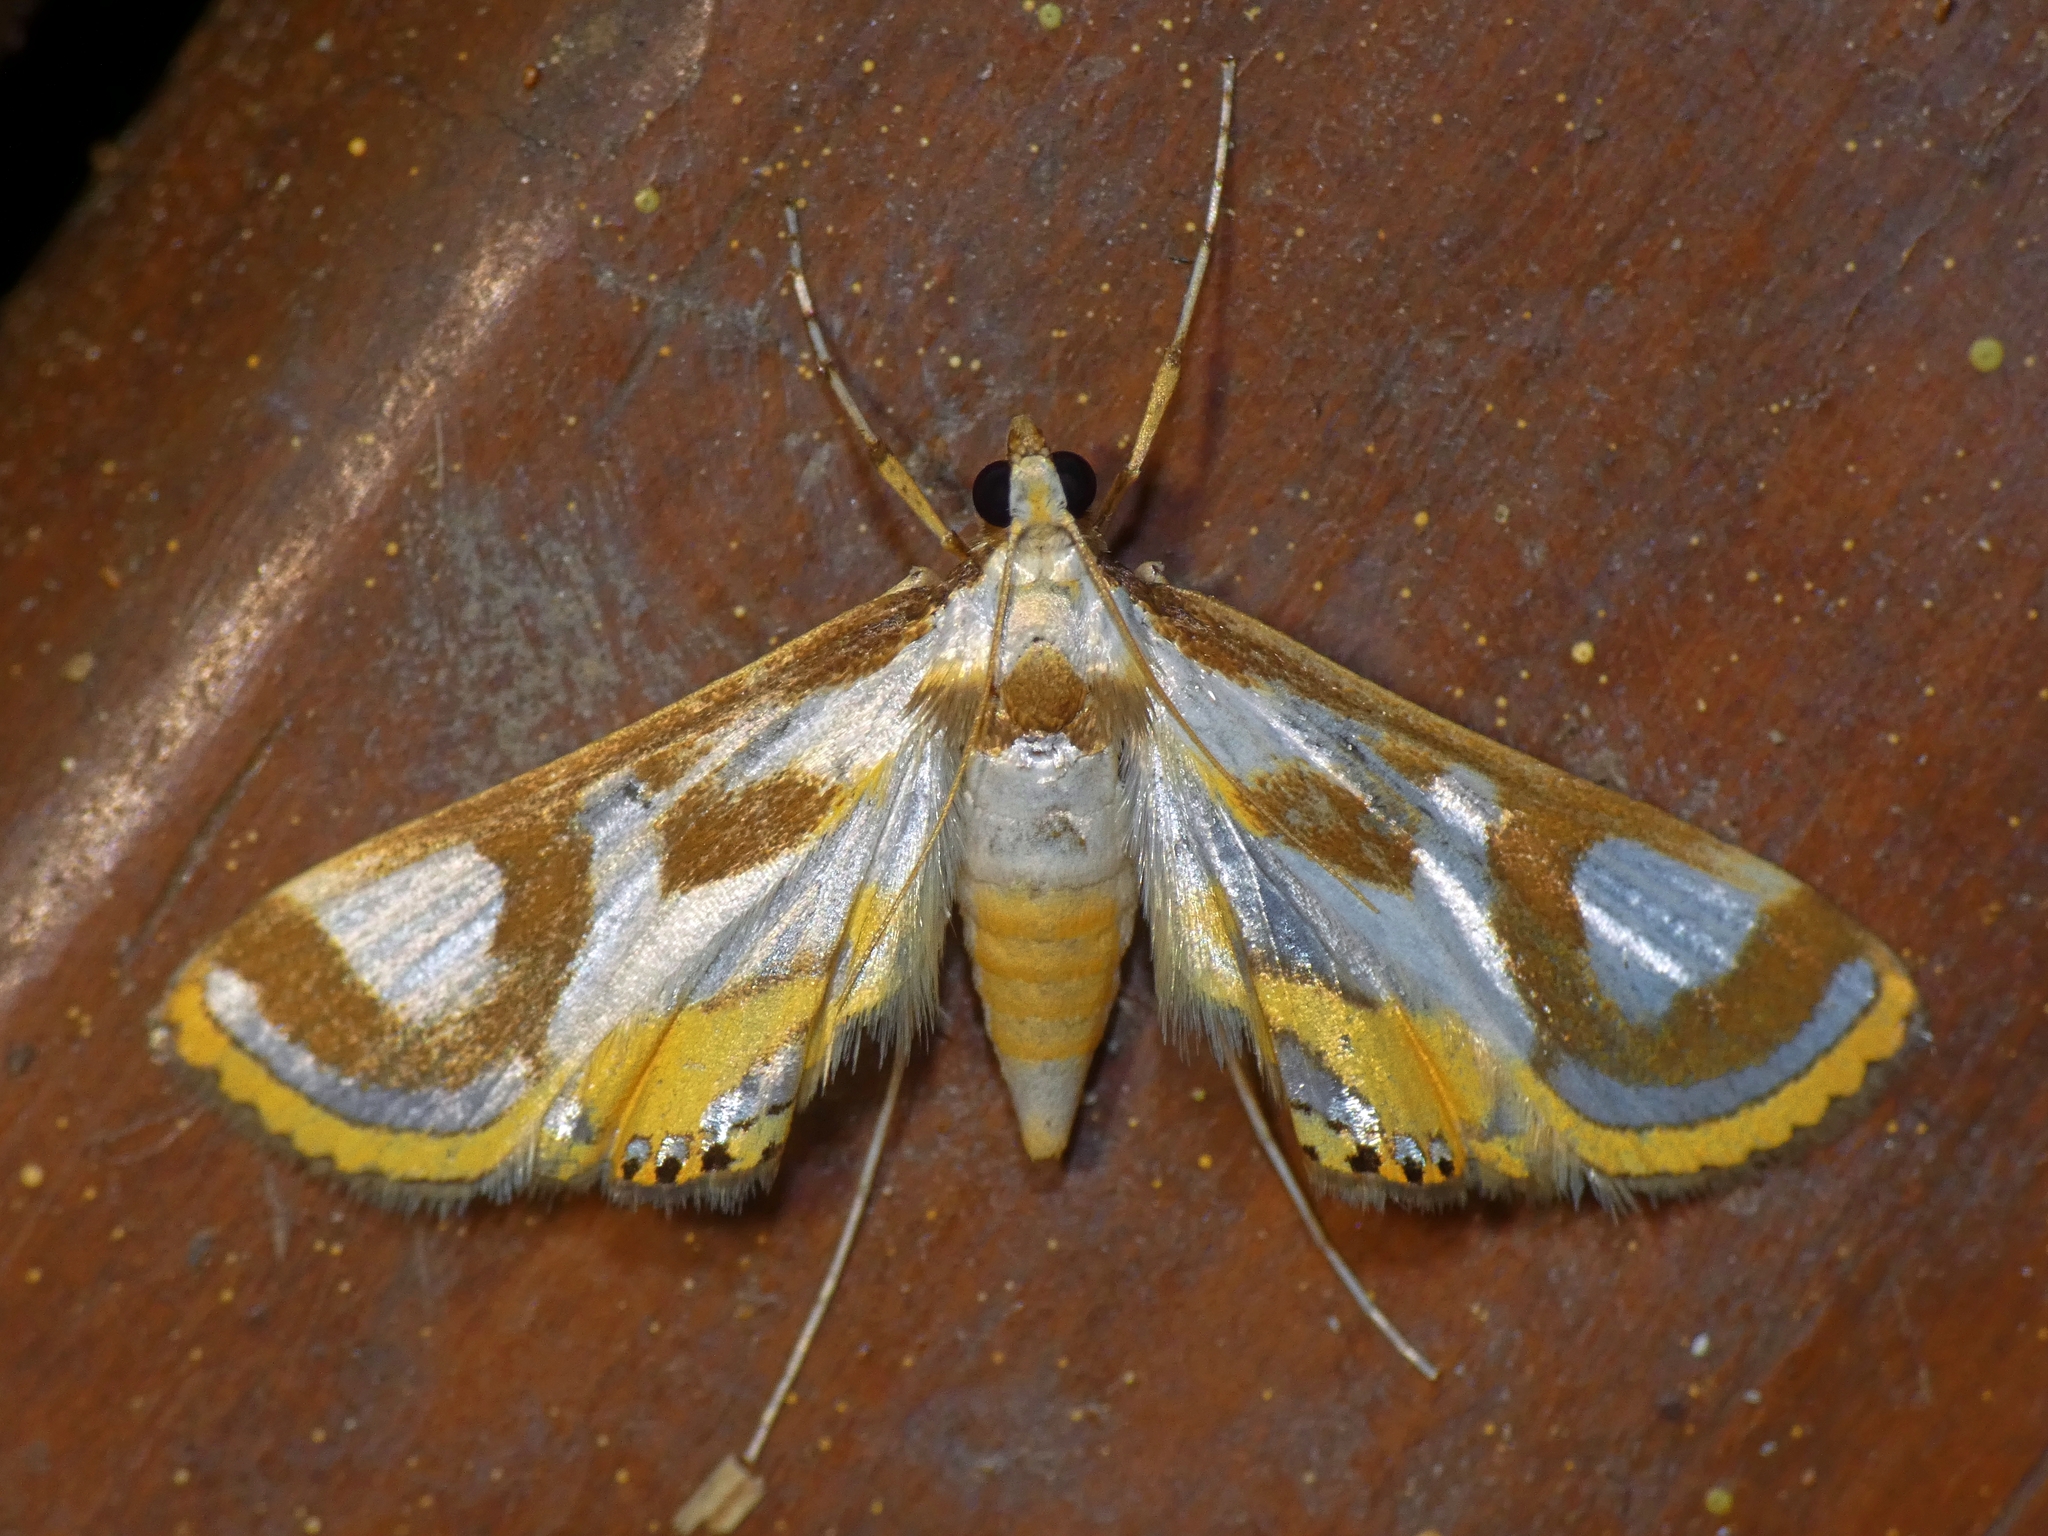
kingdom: Animalia
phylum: Arthropoda
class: Insecta
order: Lepidoptera
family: Crambidae
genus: Theila
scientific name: Theila siennata
